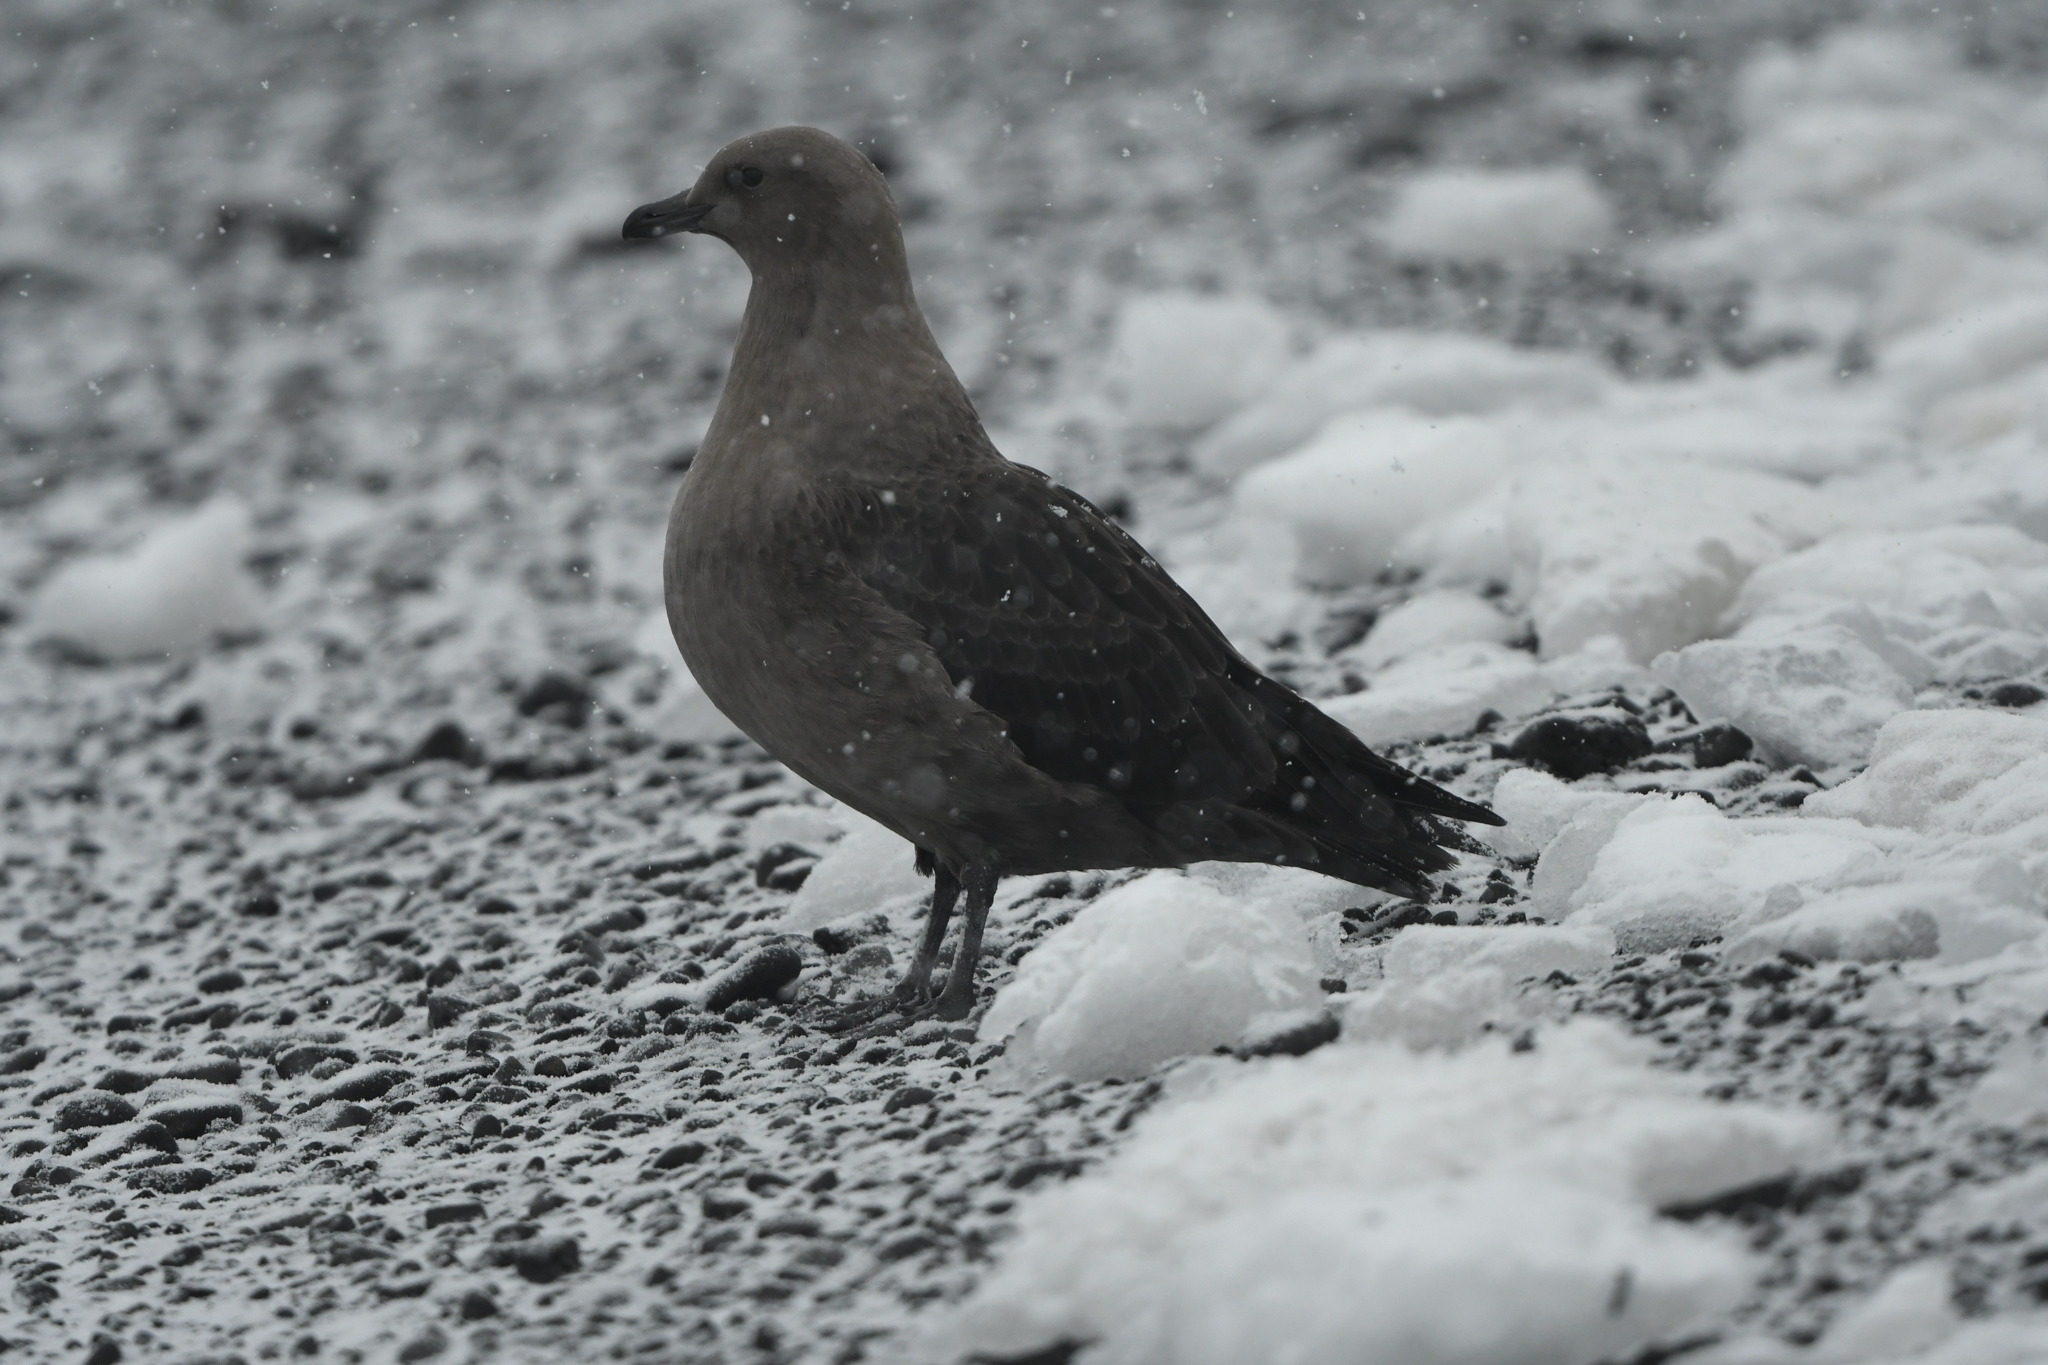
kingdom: Animalia
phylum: Chordata
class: Aves
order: Charadriiformes
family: Stercorariidae
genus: Stercorarius
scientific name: Stercorarius maccormicki
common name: South polar skua
